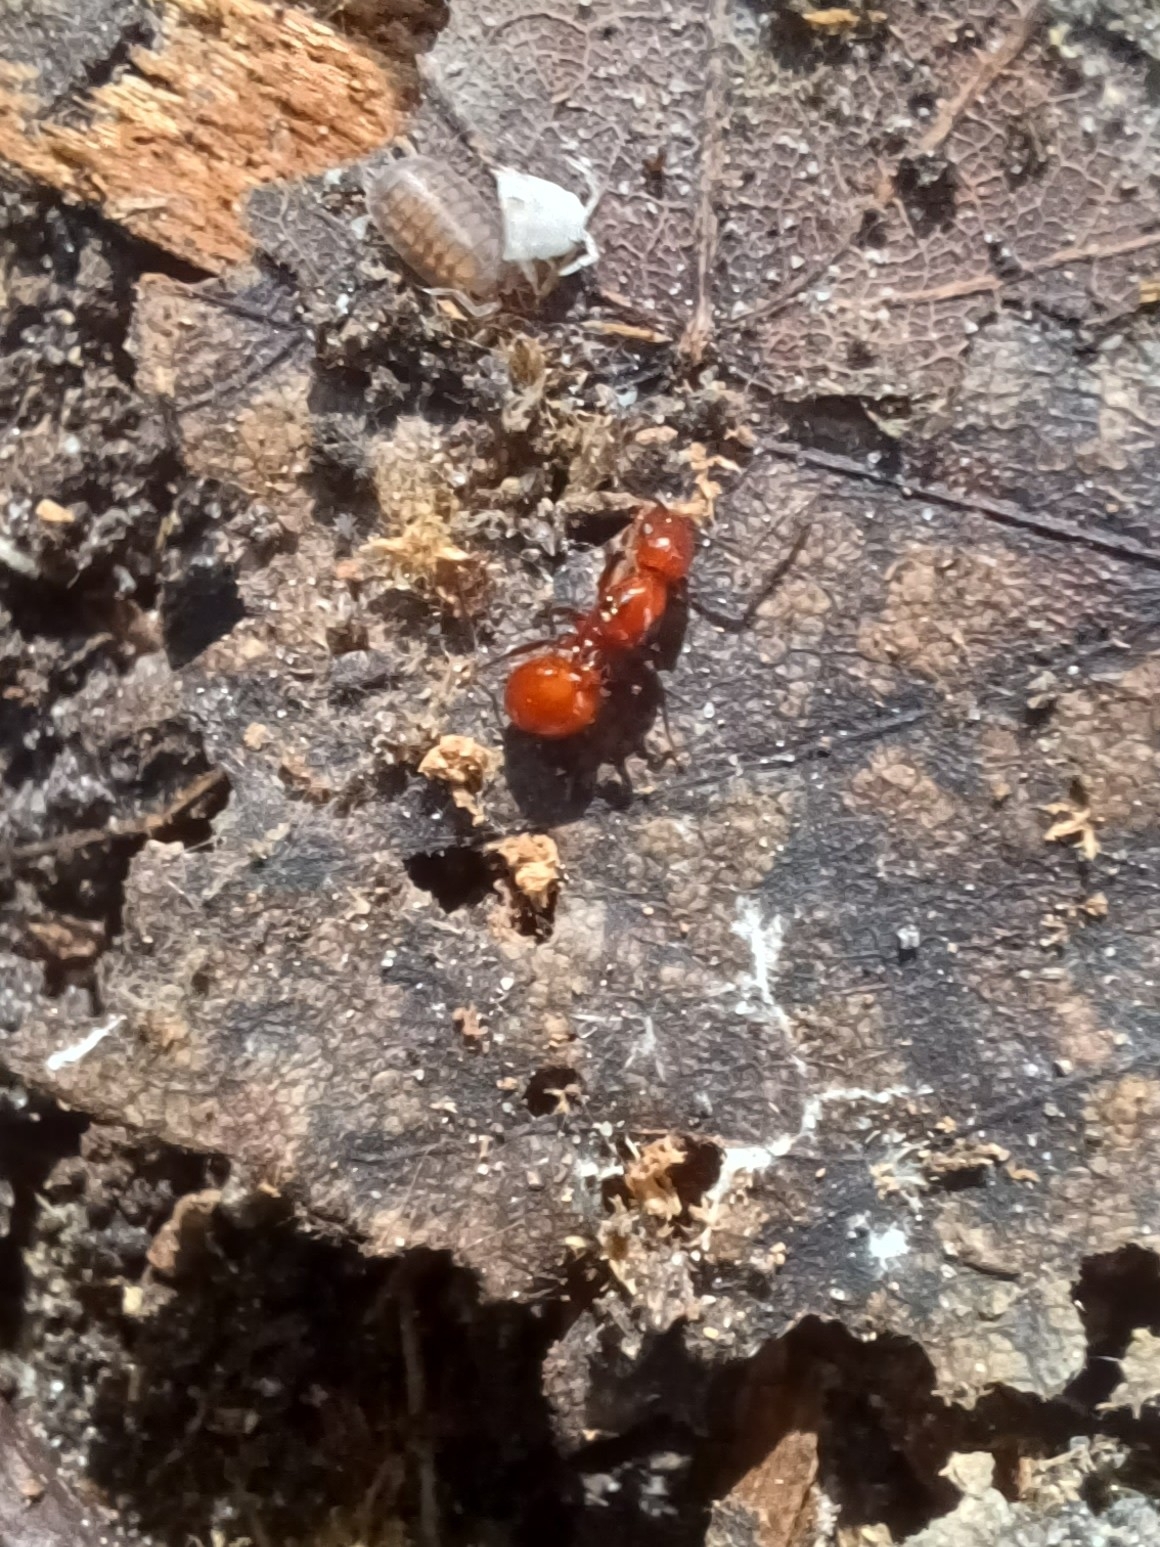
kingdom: Animalia
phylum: Arthropoda
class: Insecta
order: Hymenoptera
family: Formicidae
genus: Aphaenogaster
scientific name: Aphaenogaster tennesseensis
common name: Tennessee thread-waisted ant
